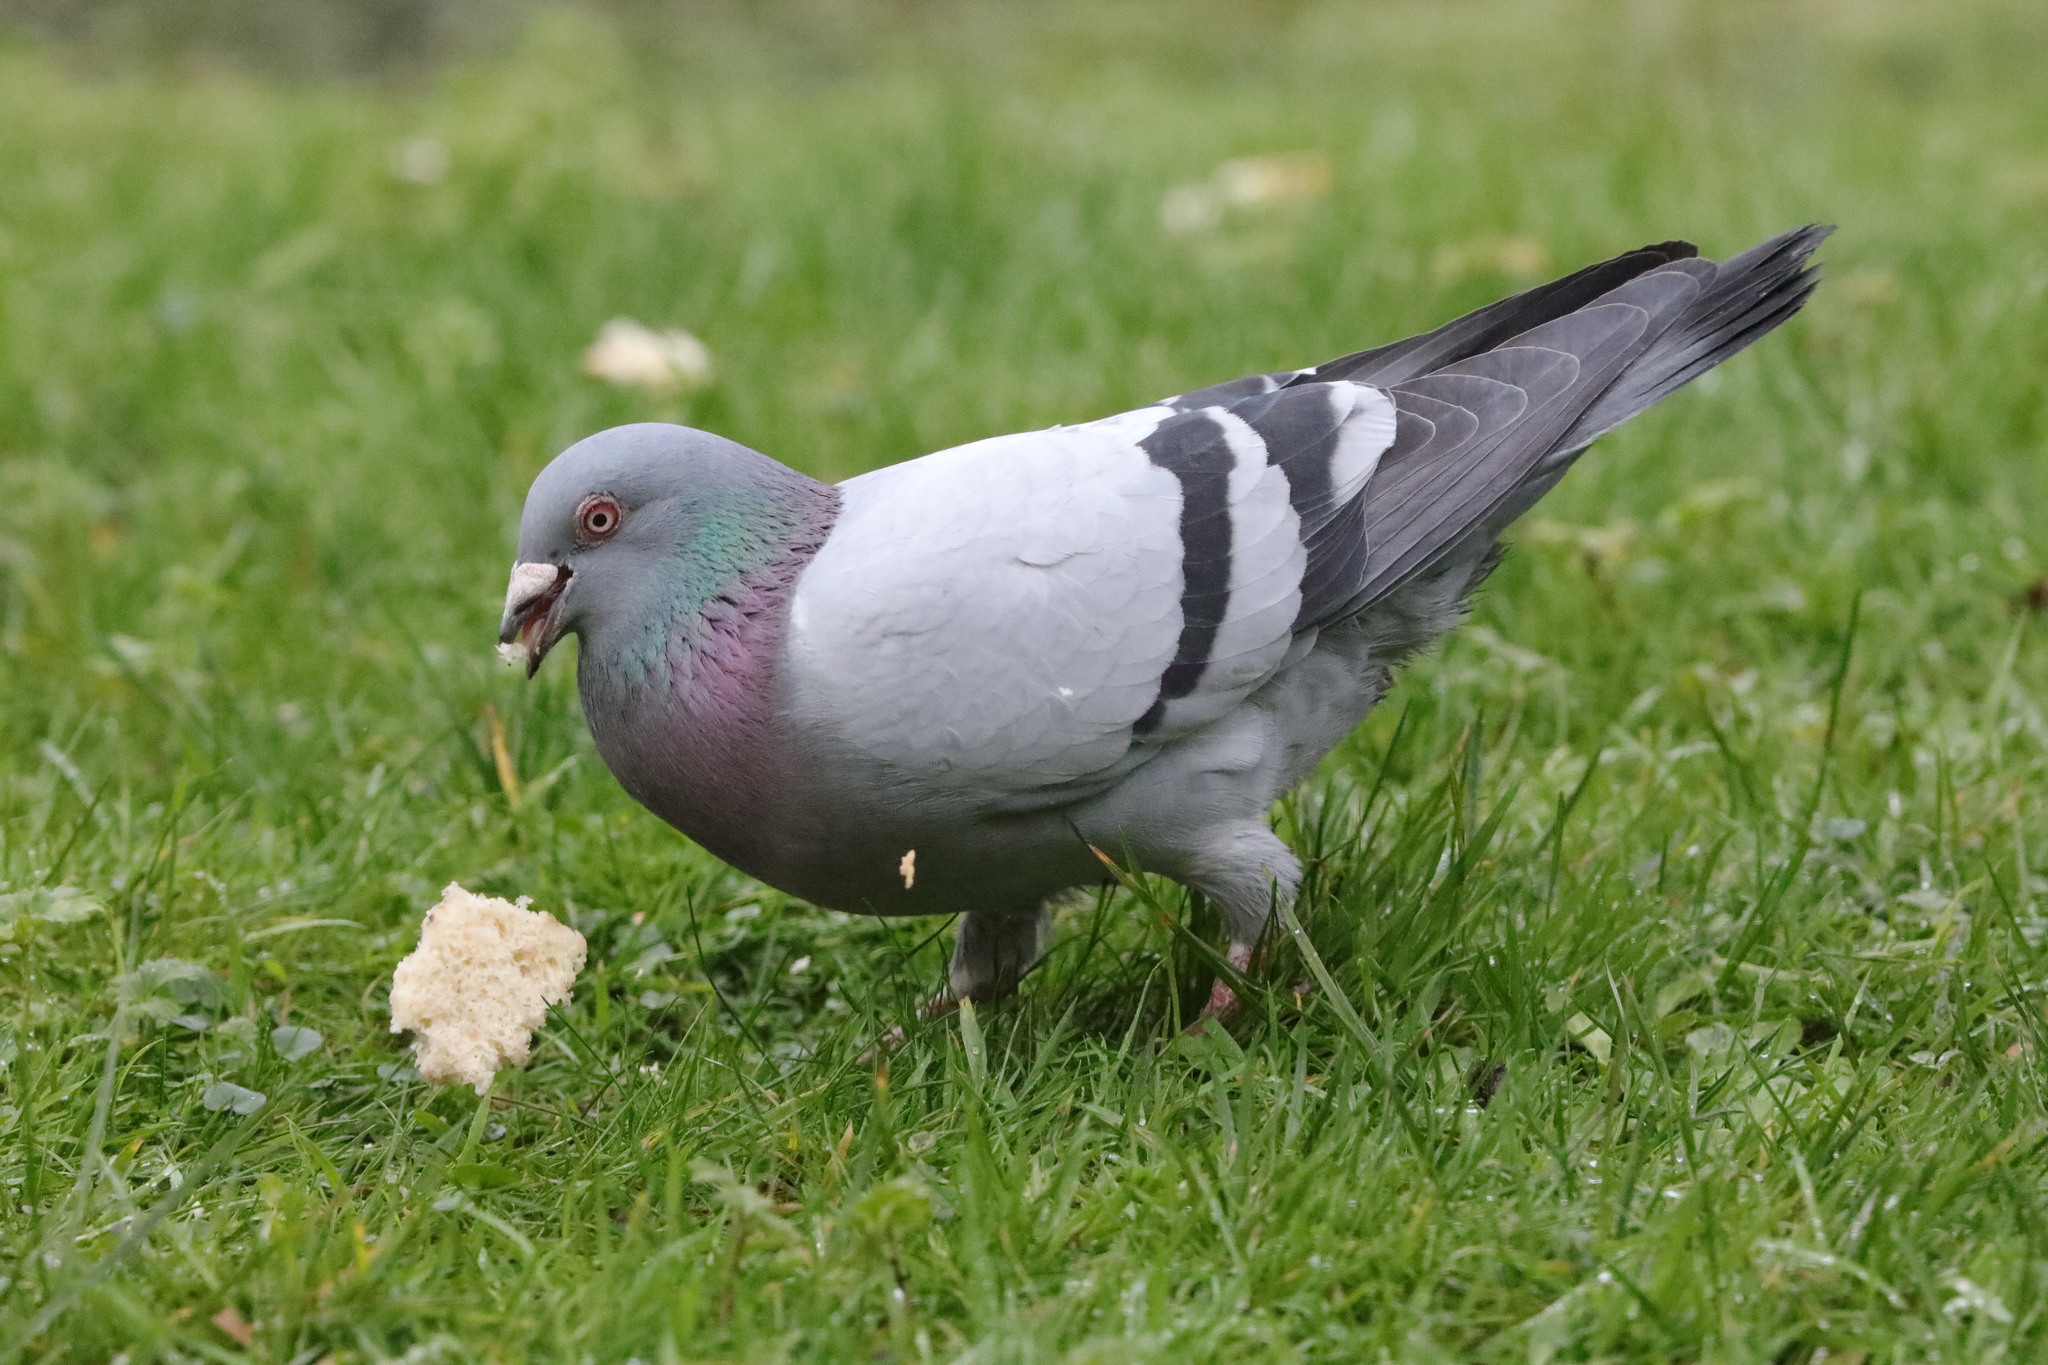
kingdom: Animalia
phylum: Chordata
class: Aves
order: Columbiformes
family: Columbidae
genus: Columba
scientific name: Columba livia
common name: Rock pigeon
